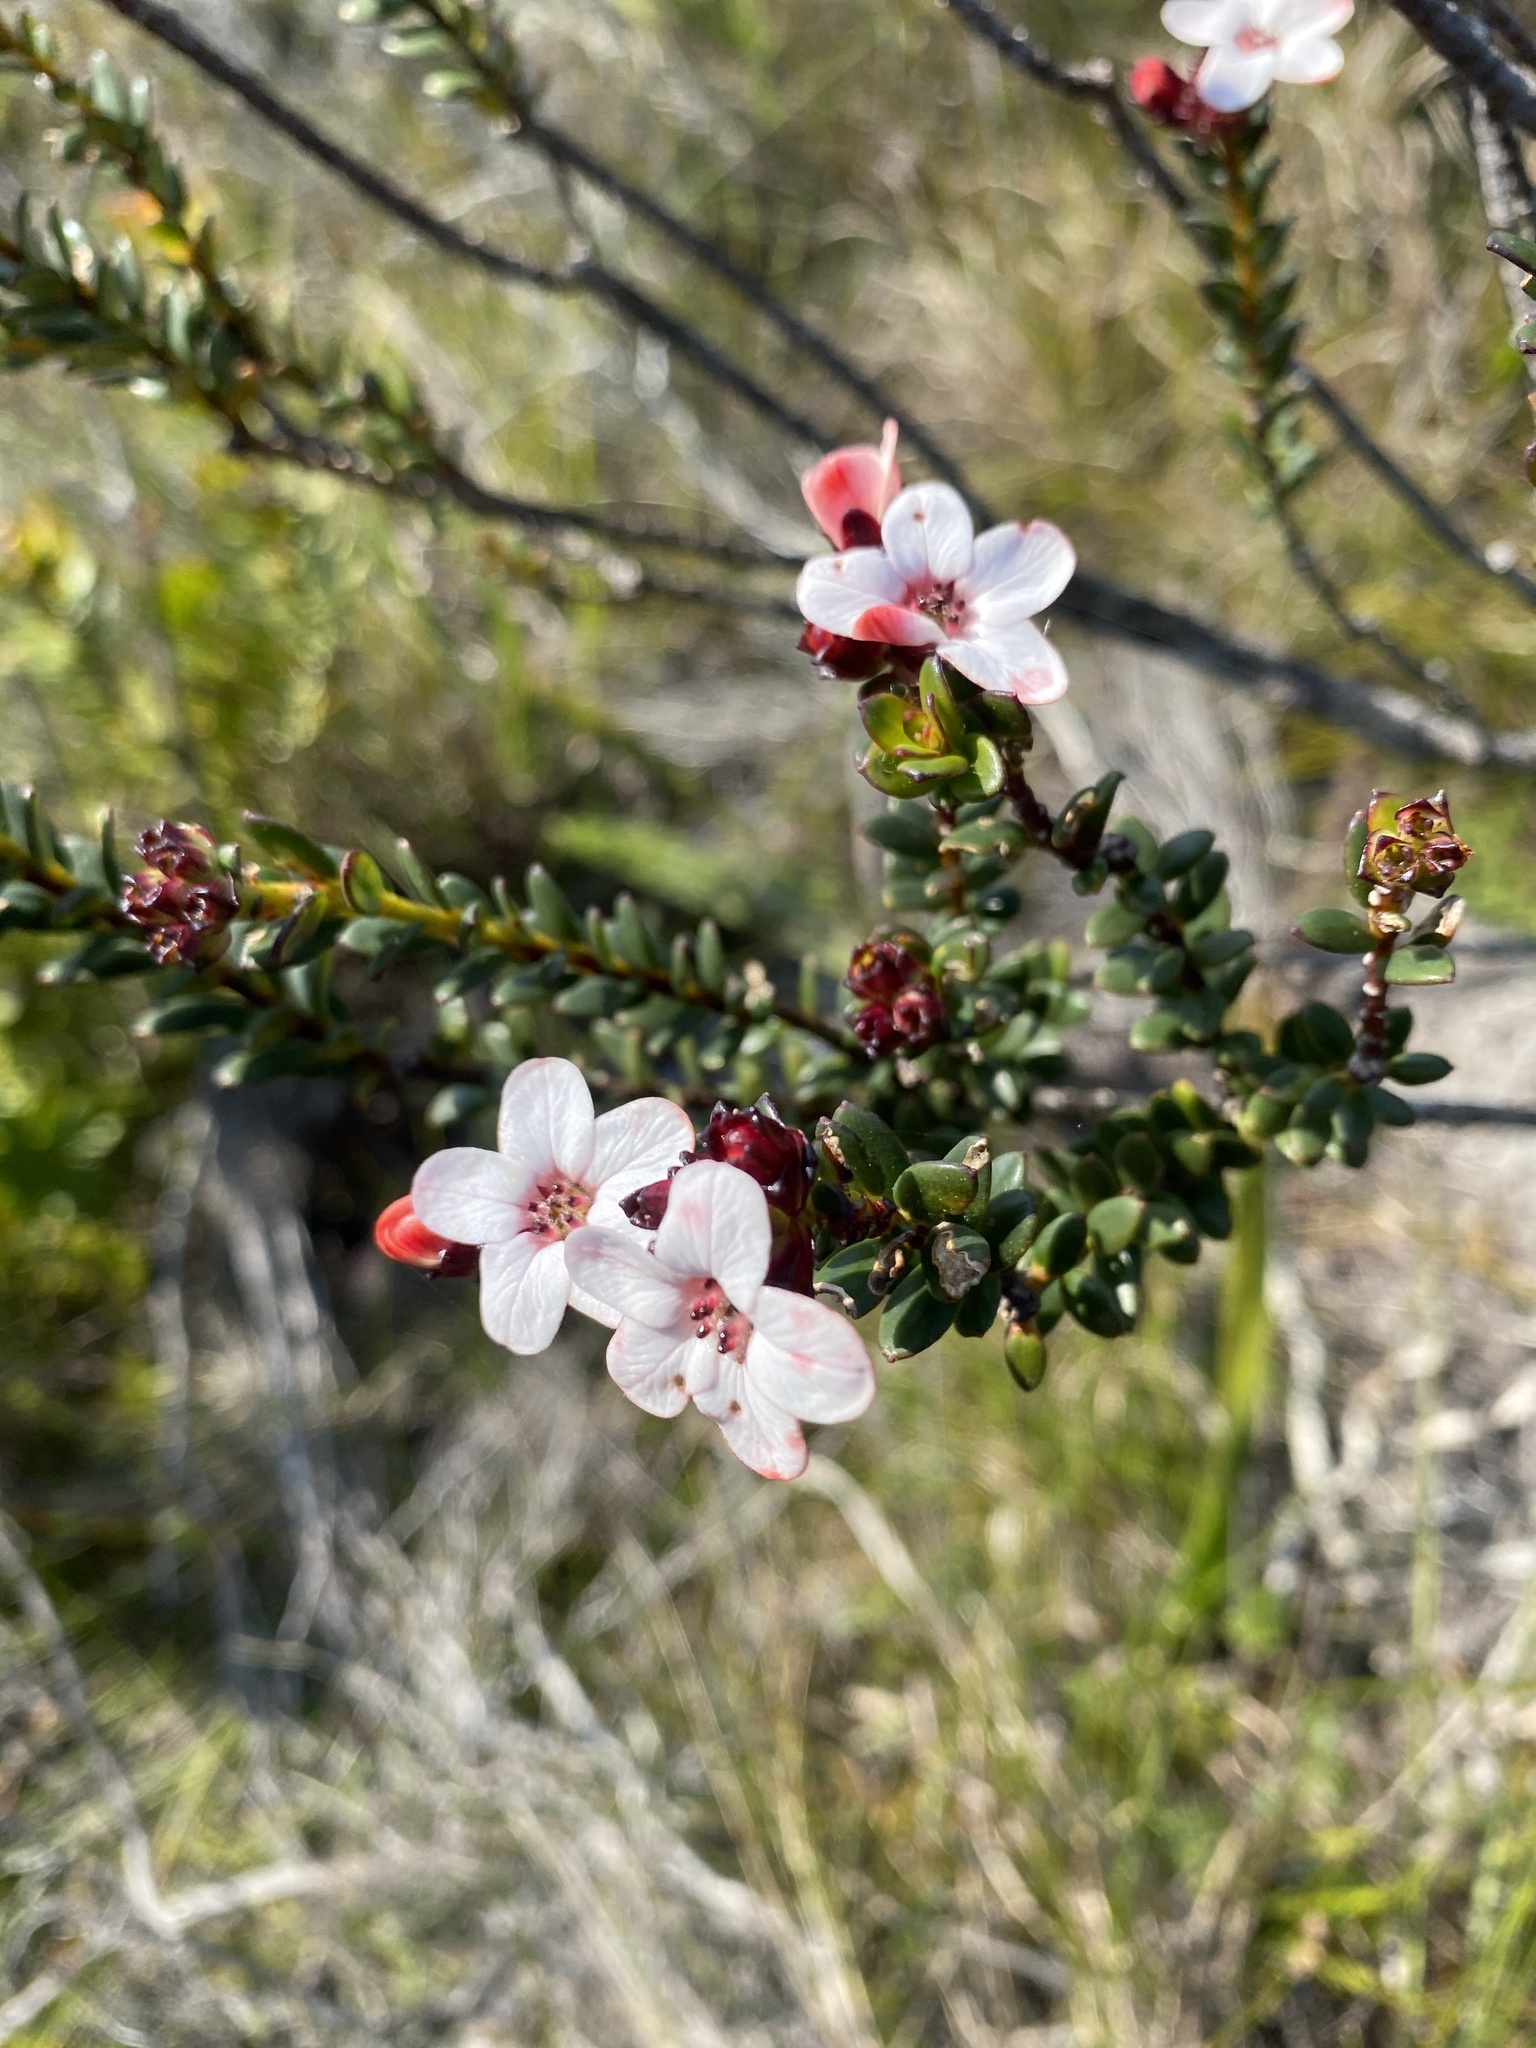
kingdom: Plantae
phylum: Tracheophyta
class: Magnoliopsida
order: Sapindales
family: Rutaceae
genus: Adenandra
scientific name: Adenandra viscida
